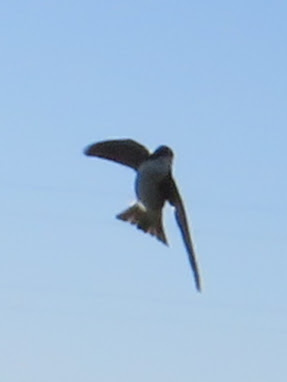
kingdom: Animalia
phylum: Chordata
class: Aves
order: Passeriformes
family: Hirundinidae
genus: Tachycineta
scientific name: Tachycineta bicolor
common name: Tree swallow
